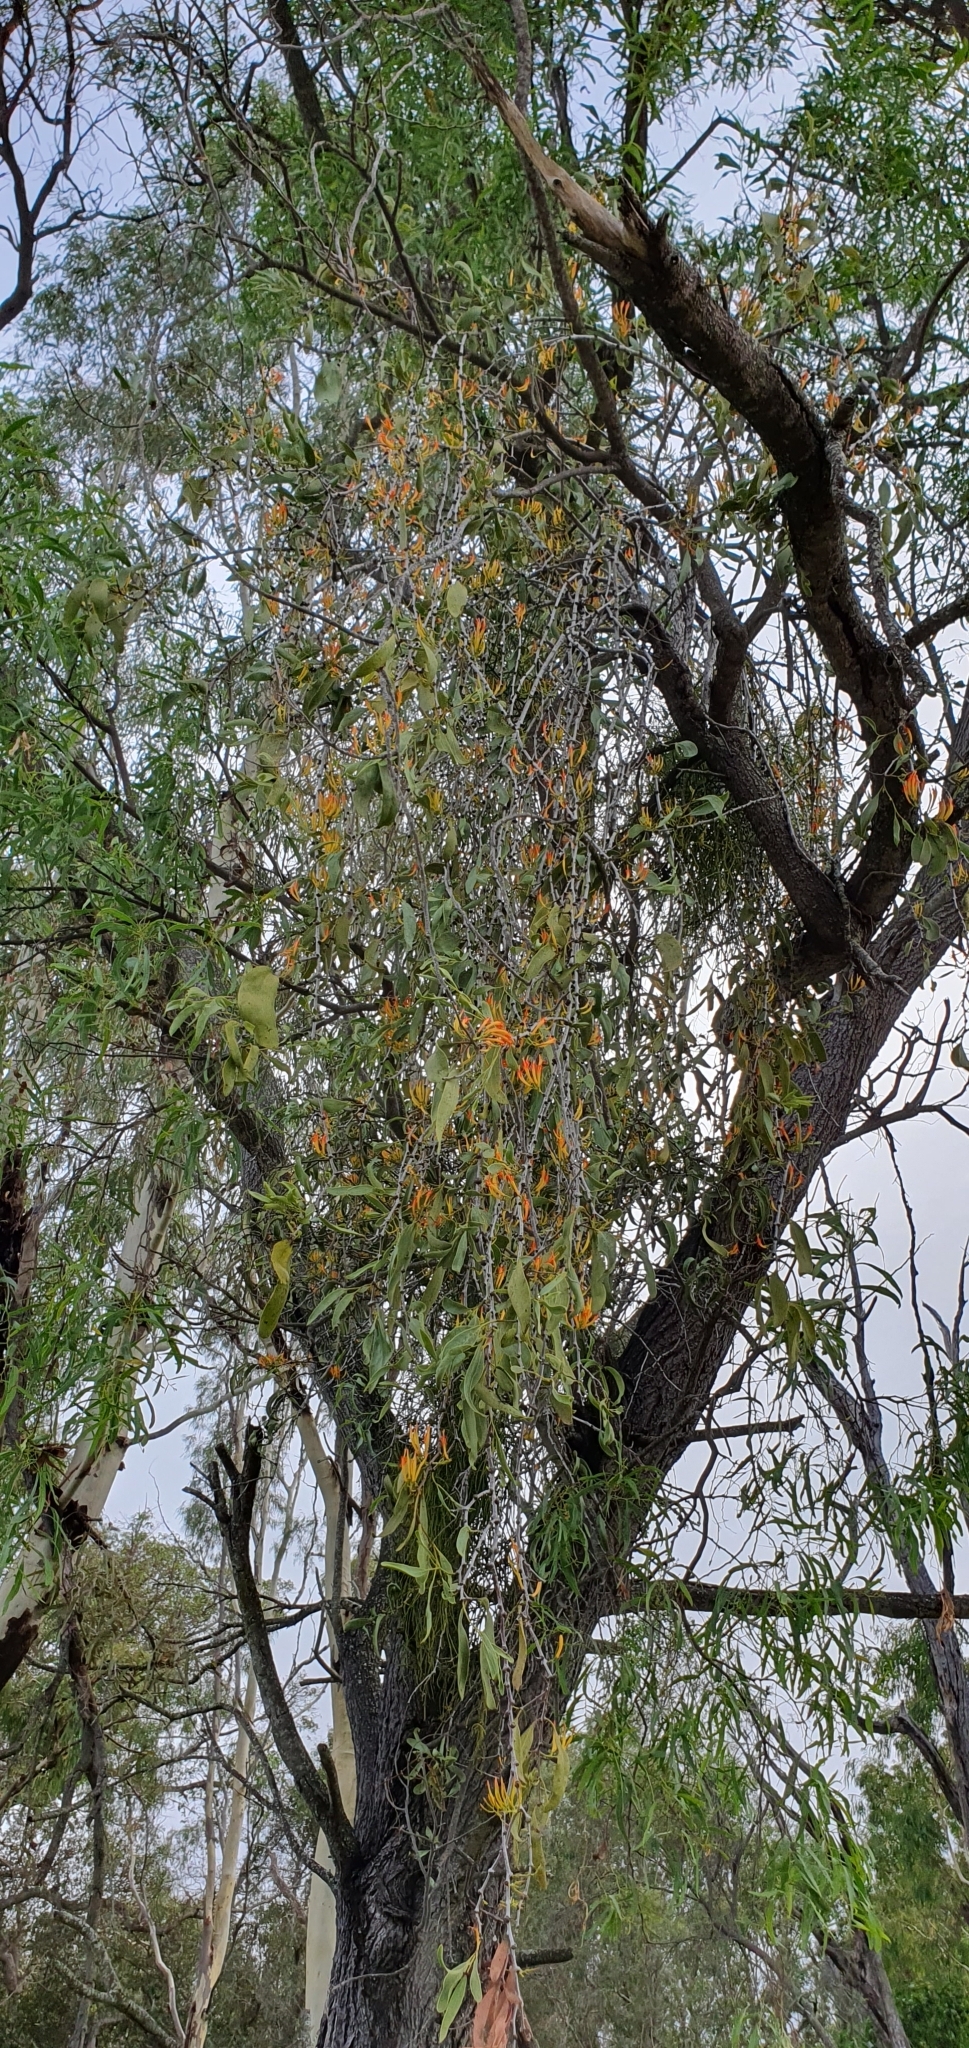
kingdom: Plantae
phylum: Tracheophyta
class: Magnoliopsida
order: Santalales
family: Loranthaceae
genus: Dendrophthoe
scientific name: Dendrophthoe glabrescens
